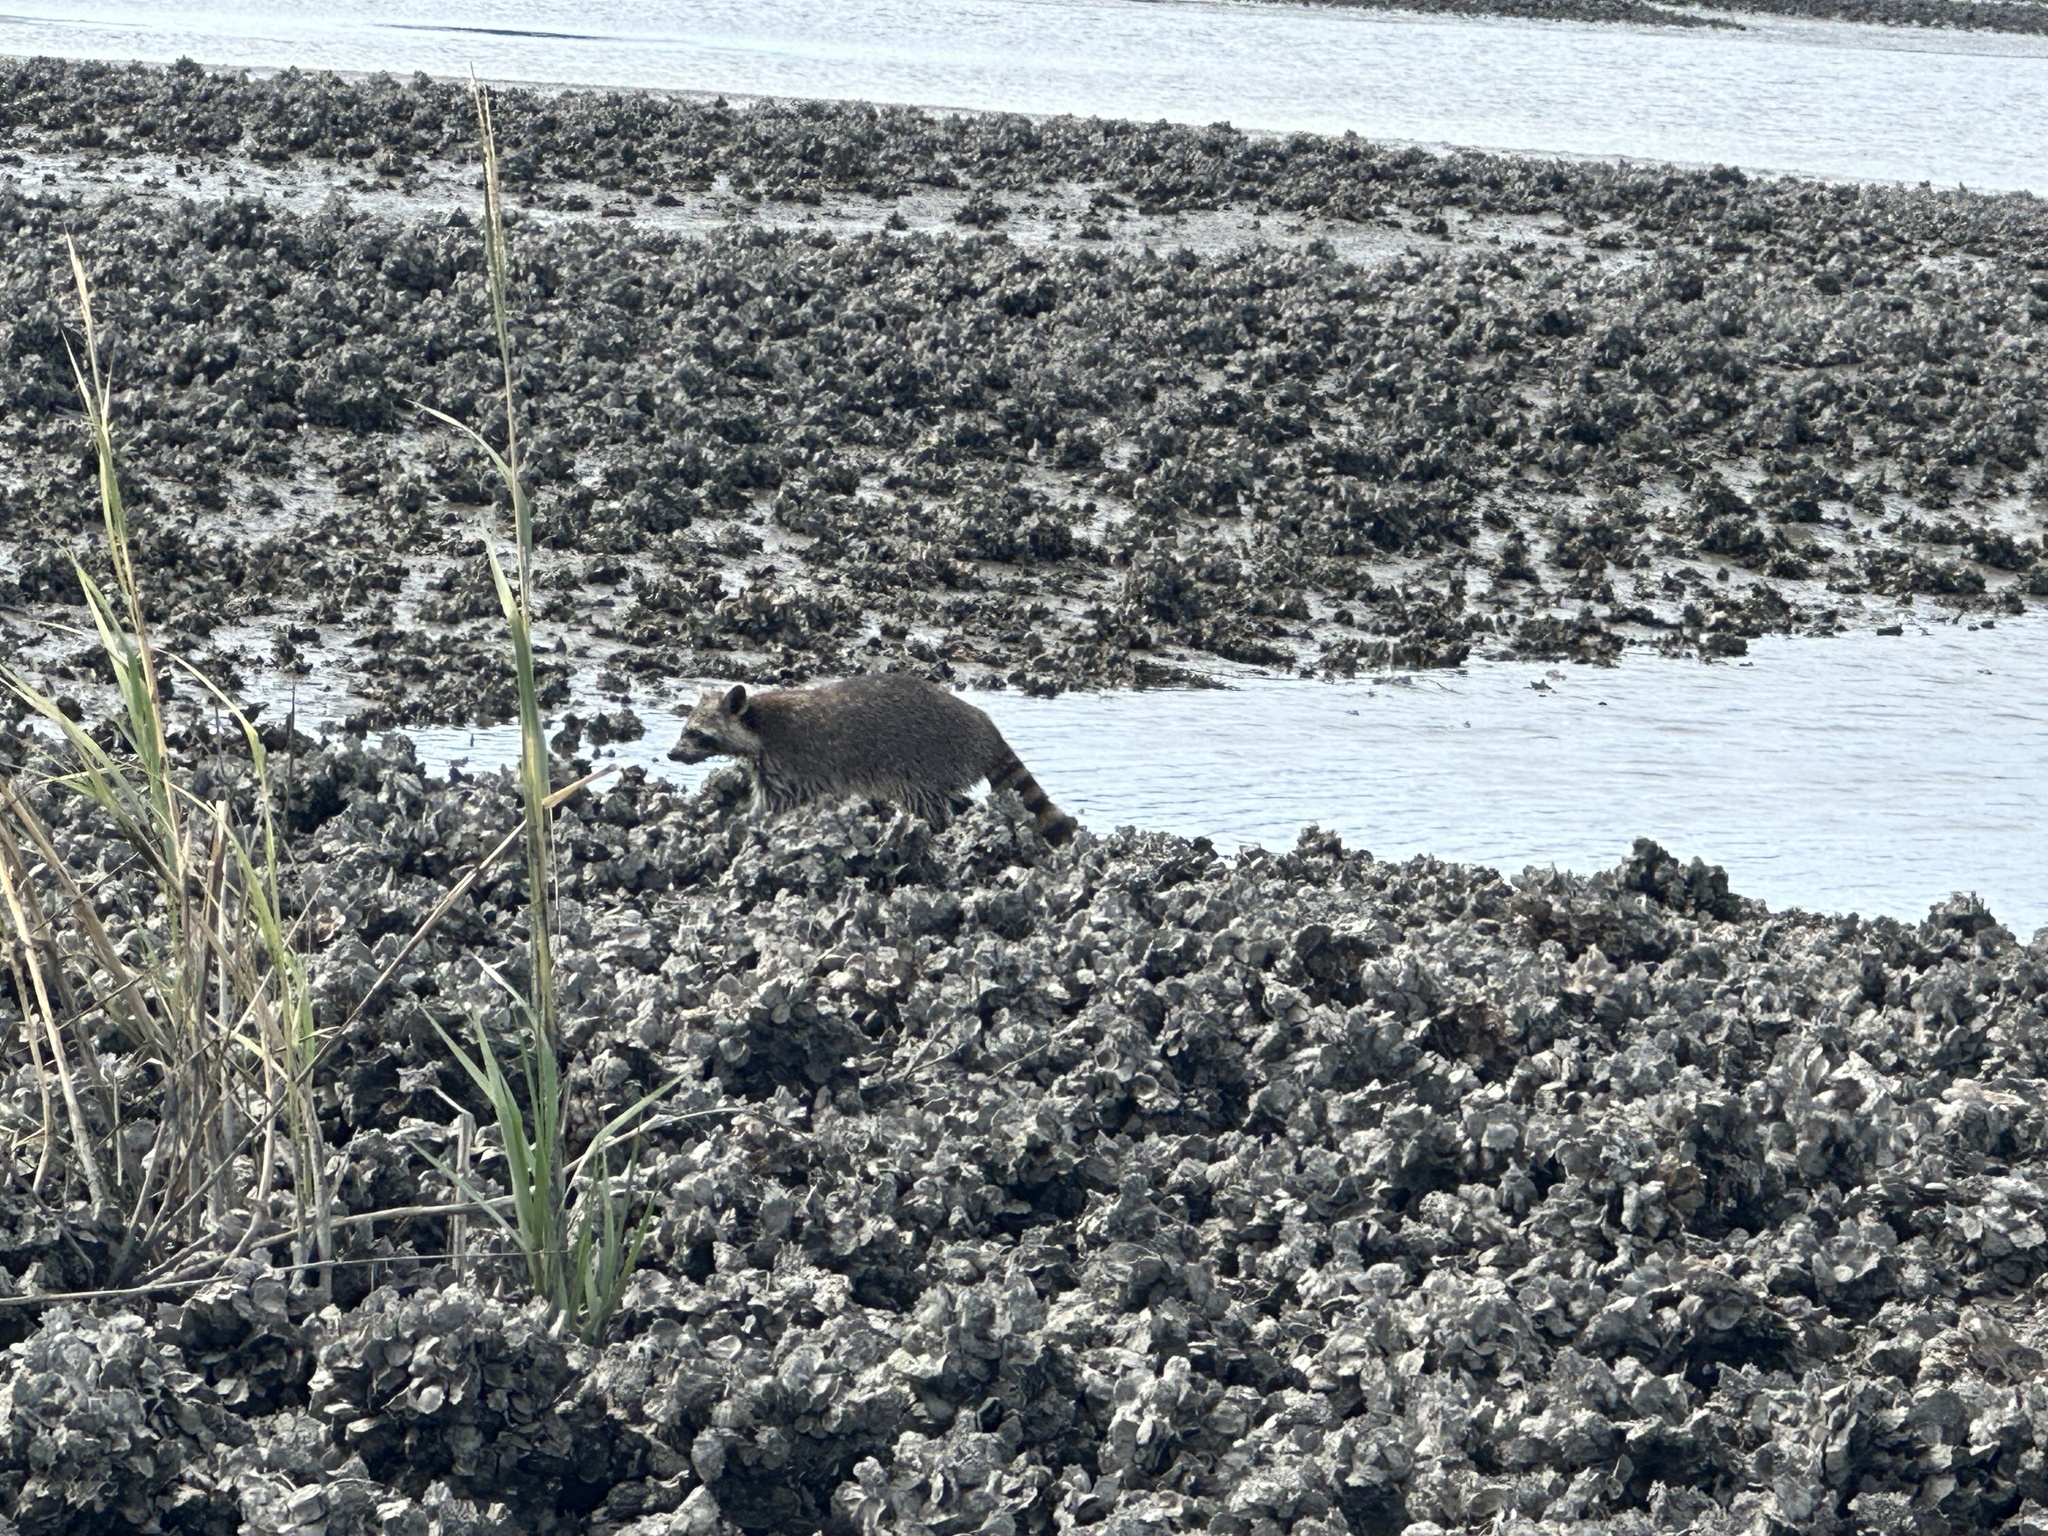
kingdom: Animalia
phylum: Chordata
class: Mammalia
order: Carnivora
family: Procyonidae
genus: Procyon
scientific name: Procyon lotor
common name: Raccoon
